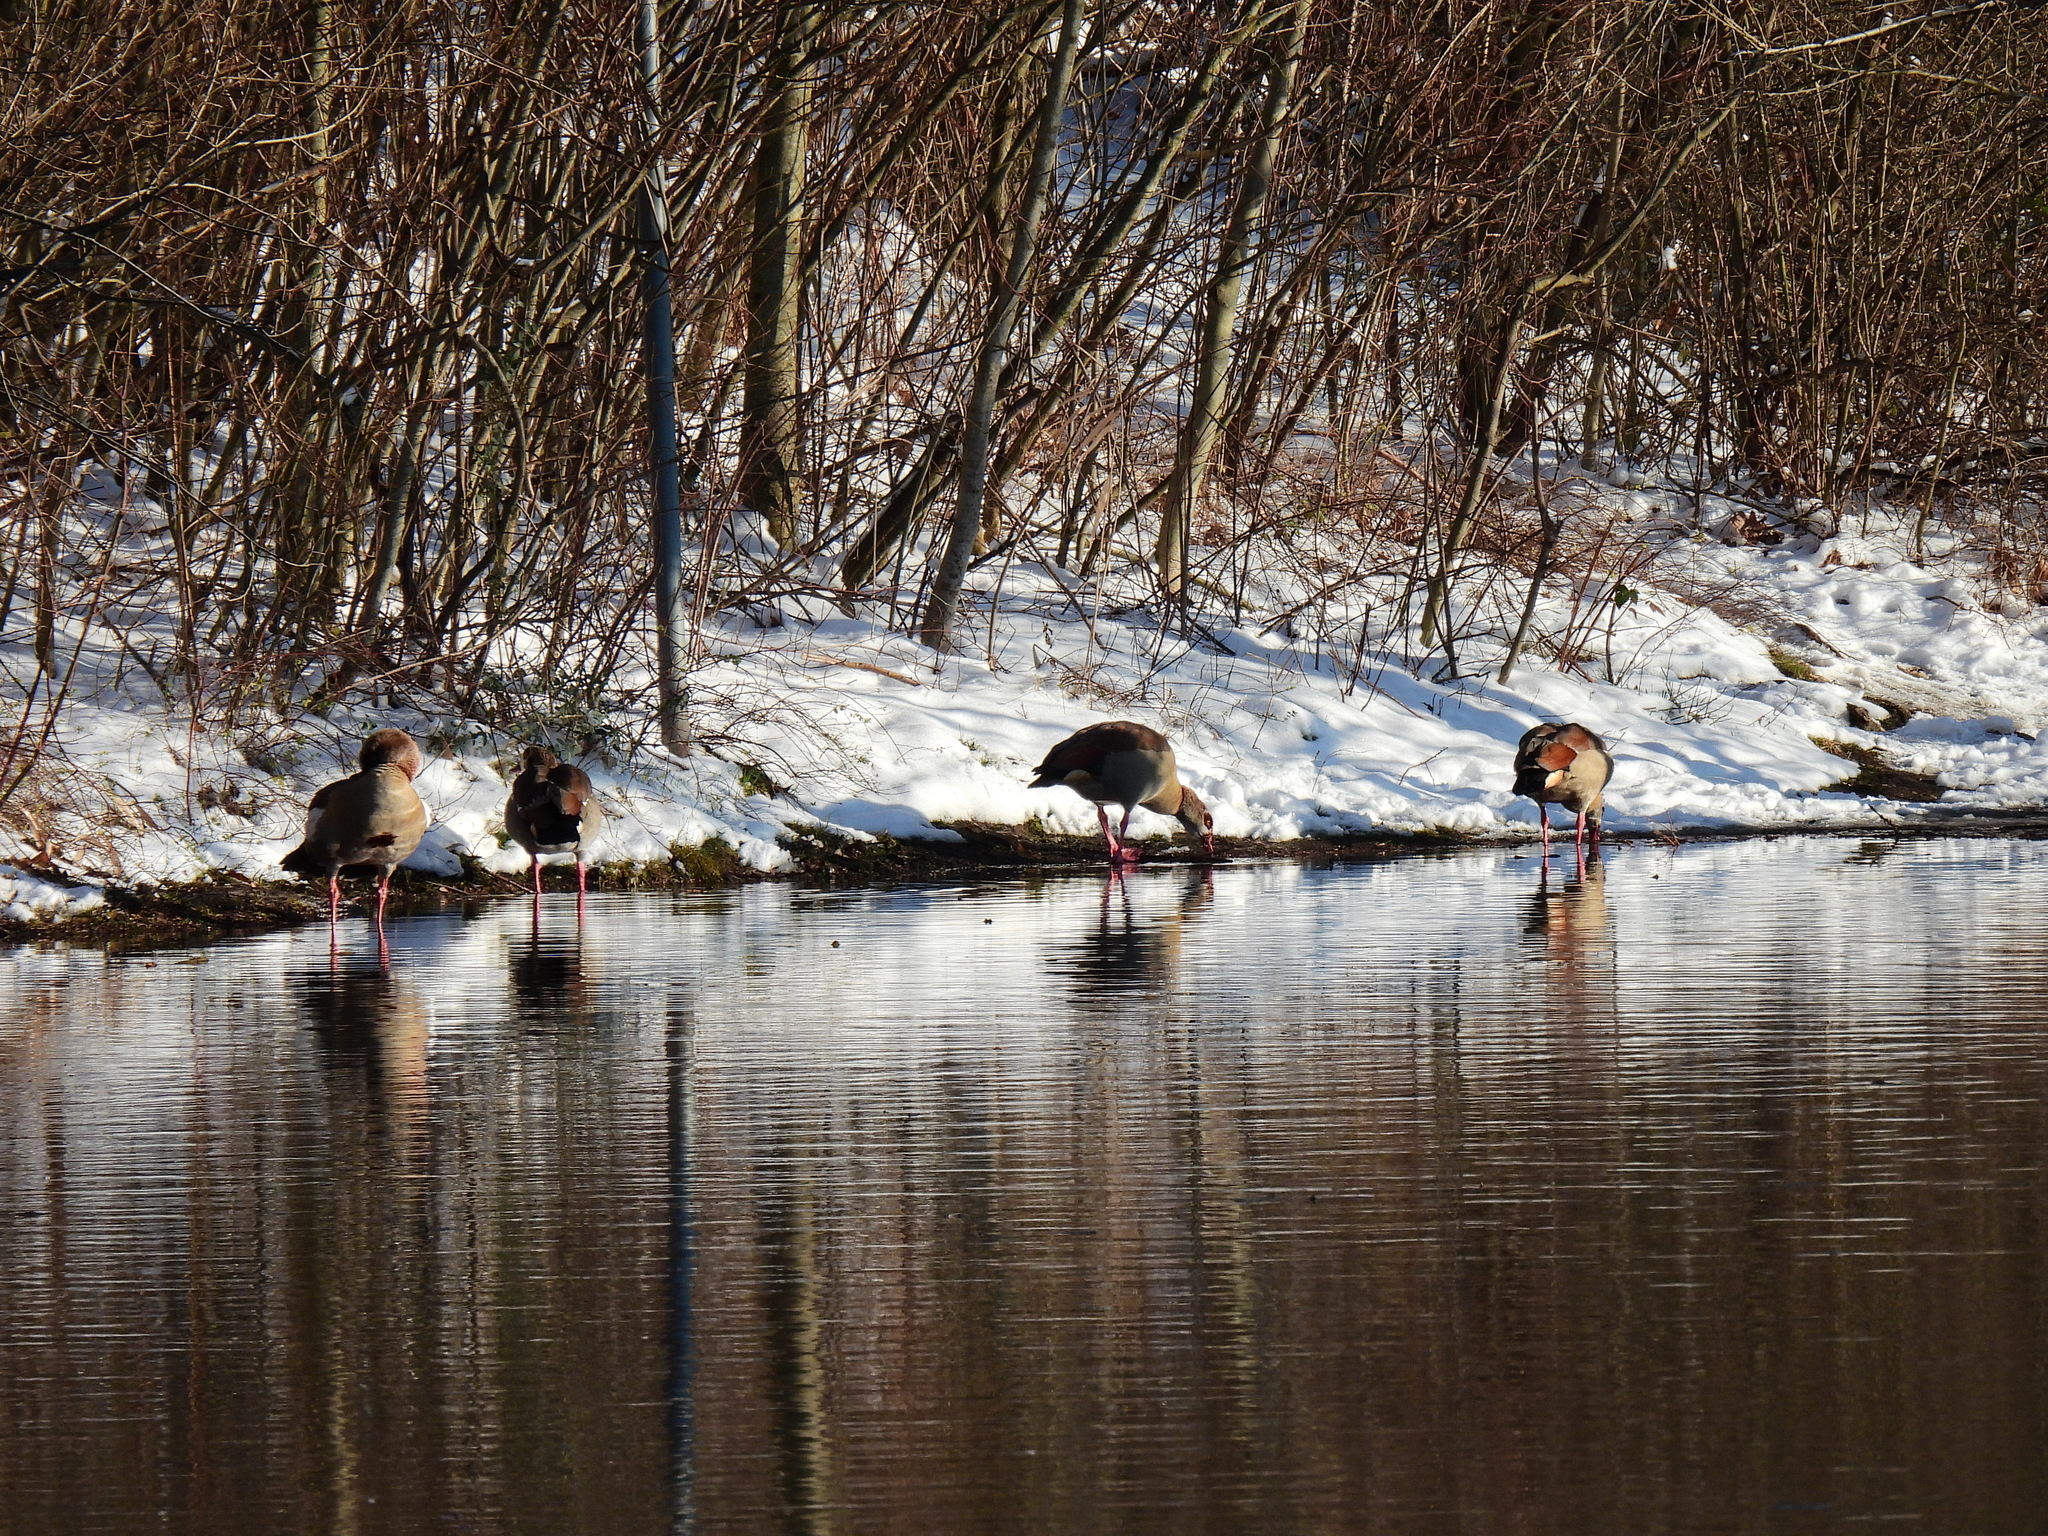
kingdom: Animalia
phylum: Chordata
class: Aves
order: Anseriformes
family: Anatidae
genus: Alopochen
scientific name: Alopochen aegyptiaca
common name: Egyptian goose
